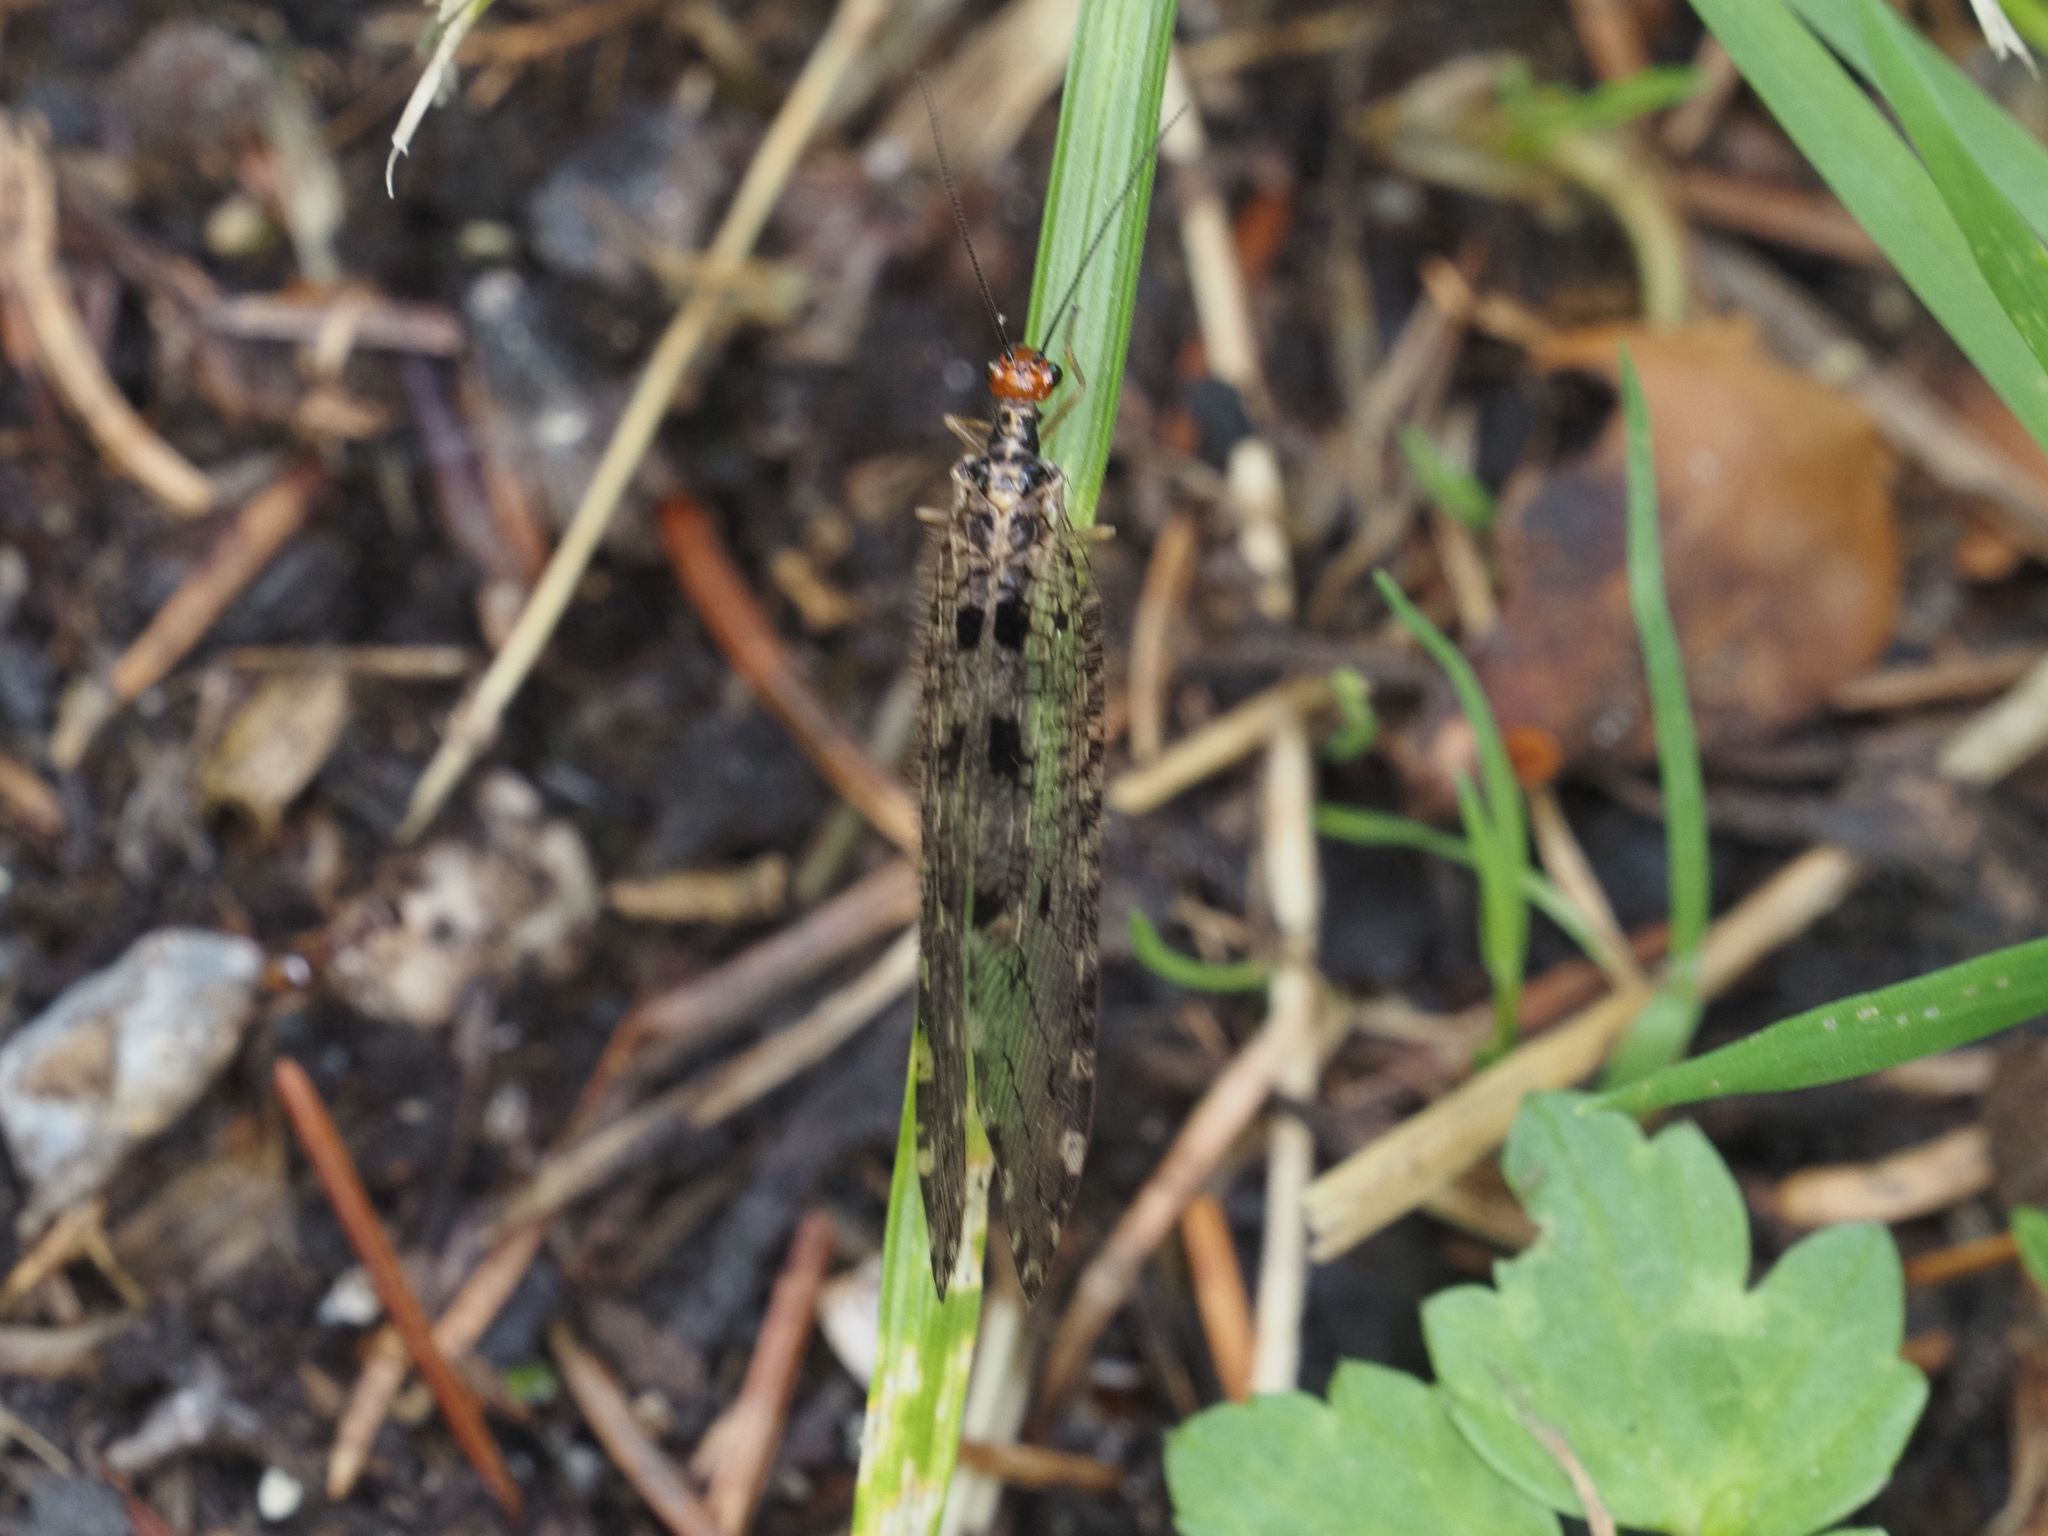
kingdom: Animalia
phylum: Arthropoda
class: Insecta
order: Neuroptera
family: Osmylidae
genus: Osmylus
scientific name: Osmylus fulvicephalus
